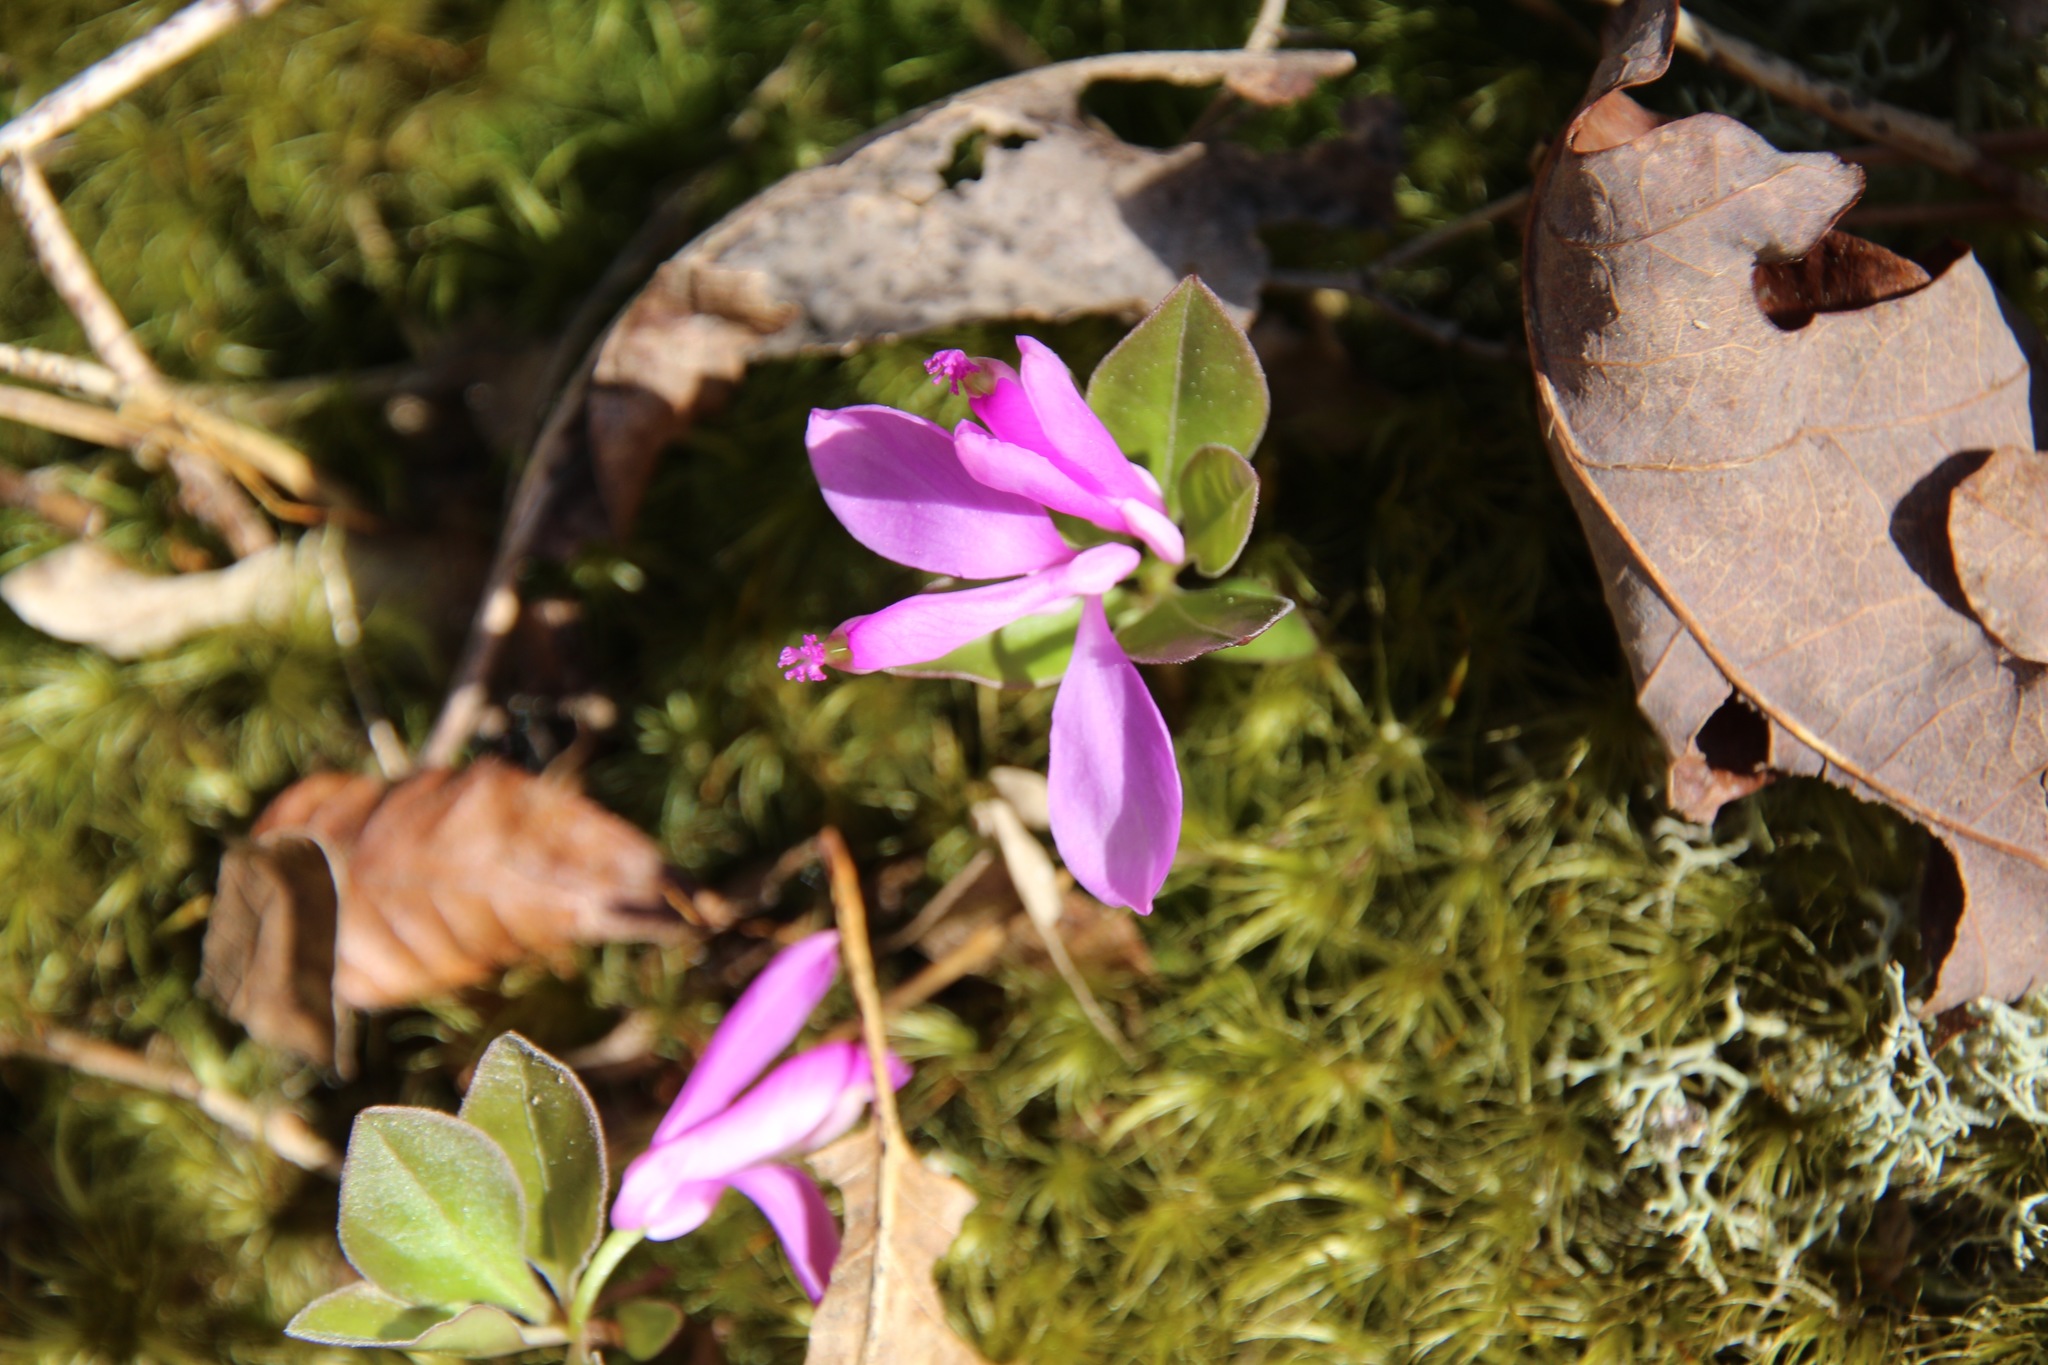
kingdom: Plantae
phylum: Tracheophyta
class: Magnoliopsida
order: Fabales
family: Polygalaceae
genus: Polygaloides
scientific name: Polygaloides paucifolia
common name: Bird-on-the-wing
